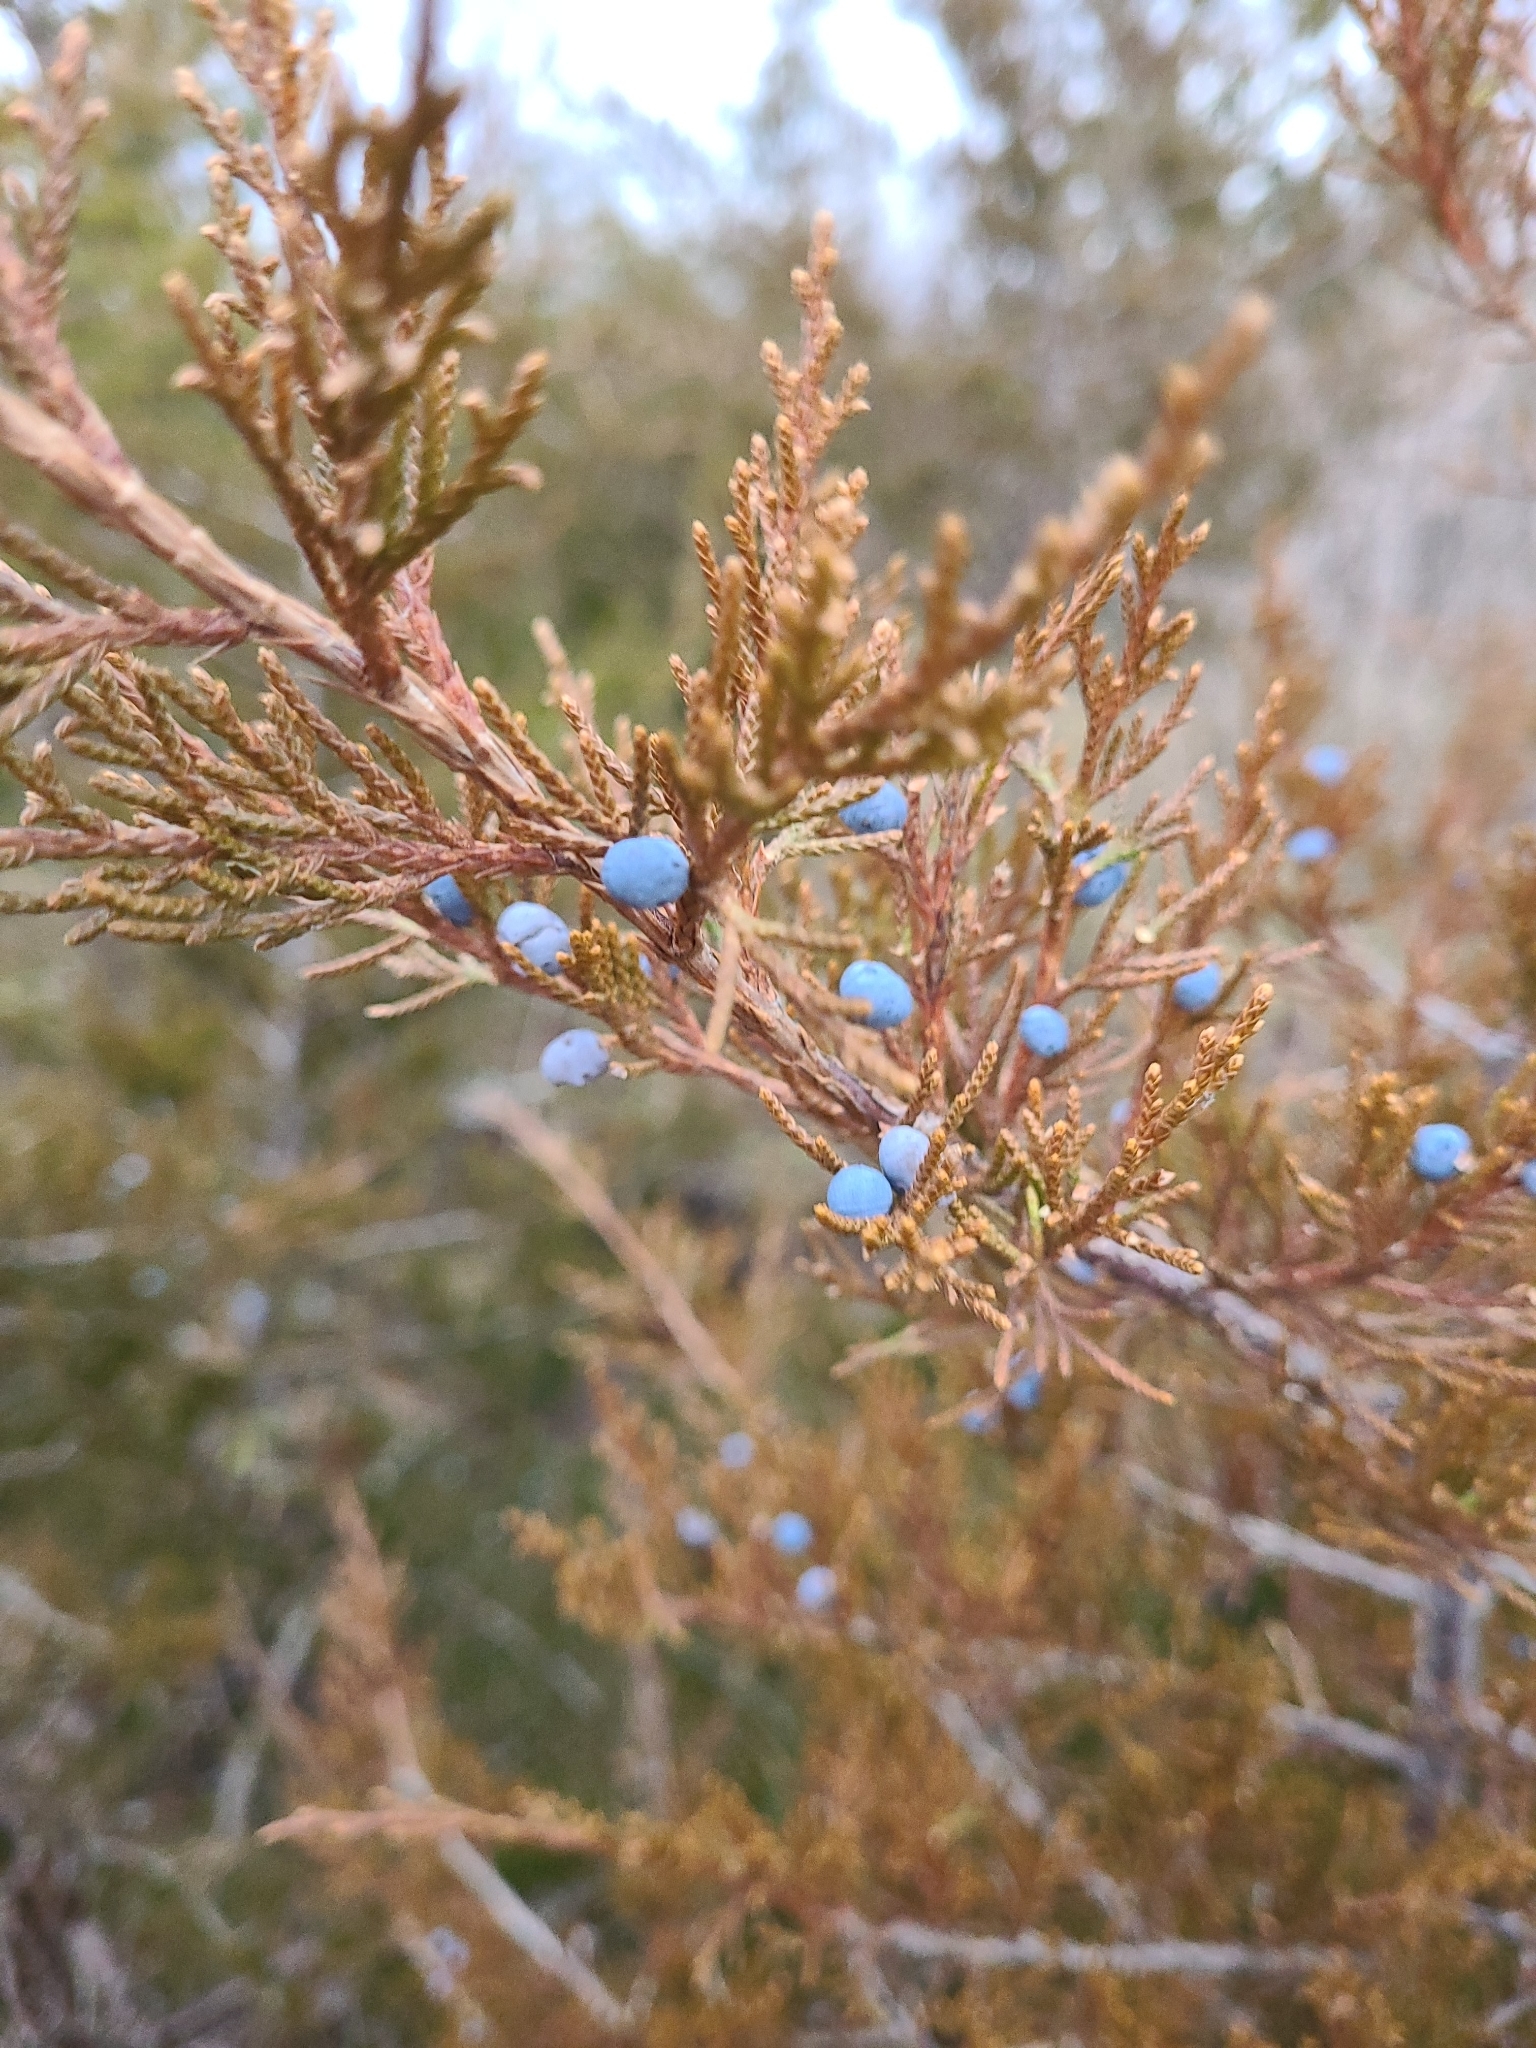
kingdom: Plantae
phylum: Tracheophyta
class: Pinopsida
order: Pinales
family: Cupressaceae
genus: Juniperus
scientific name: Juniperus virginiana
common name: Red juniper
